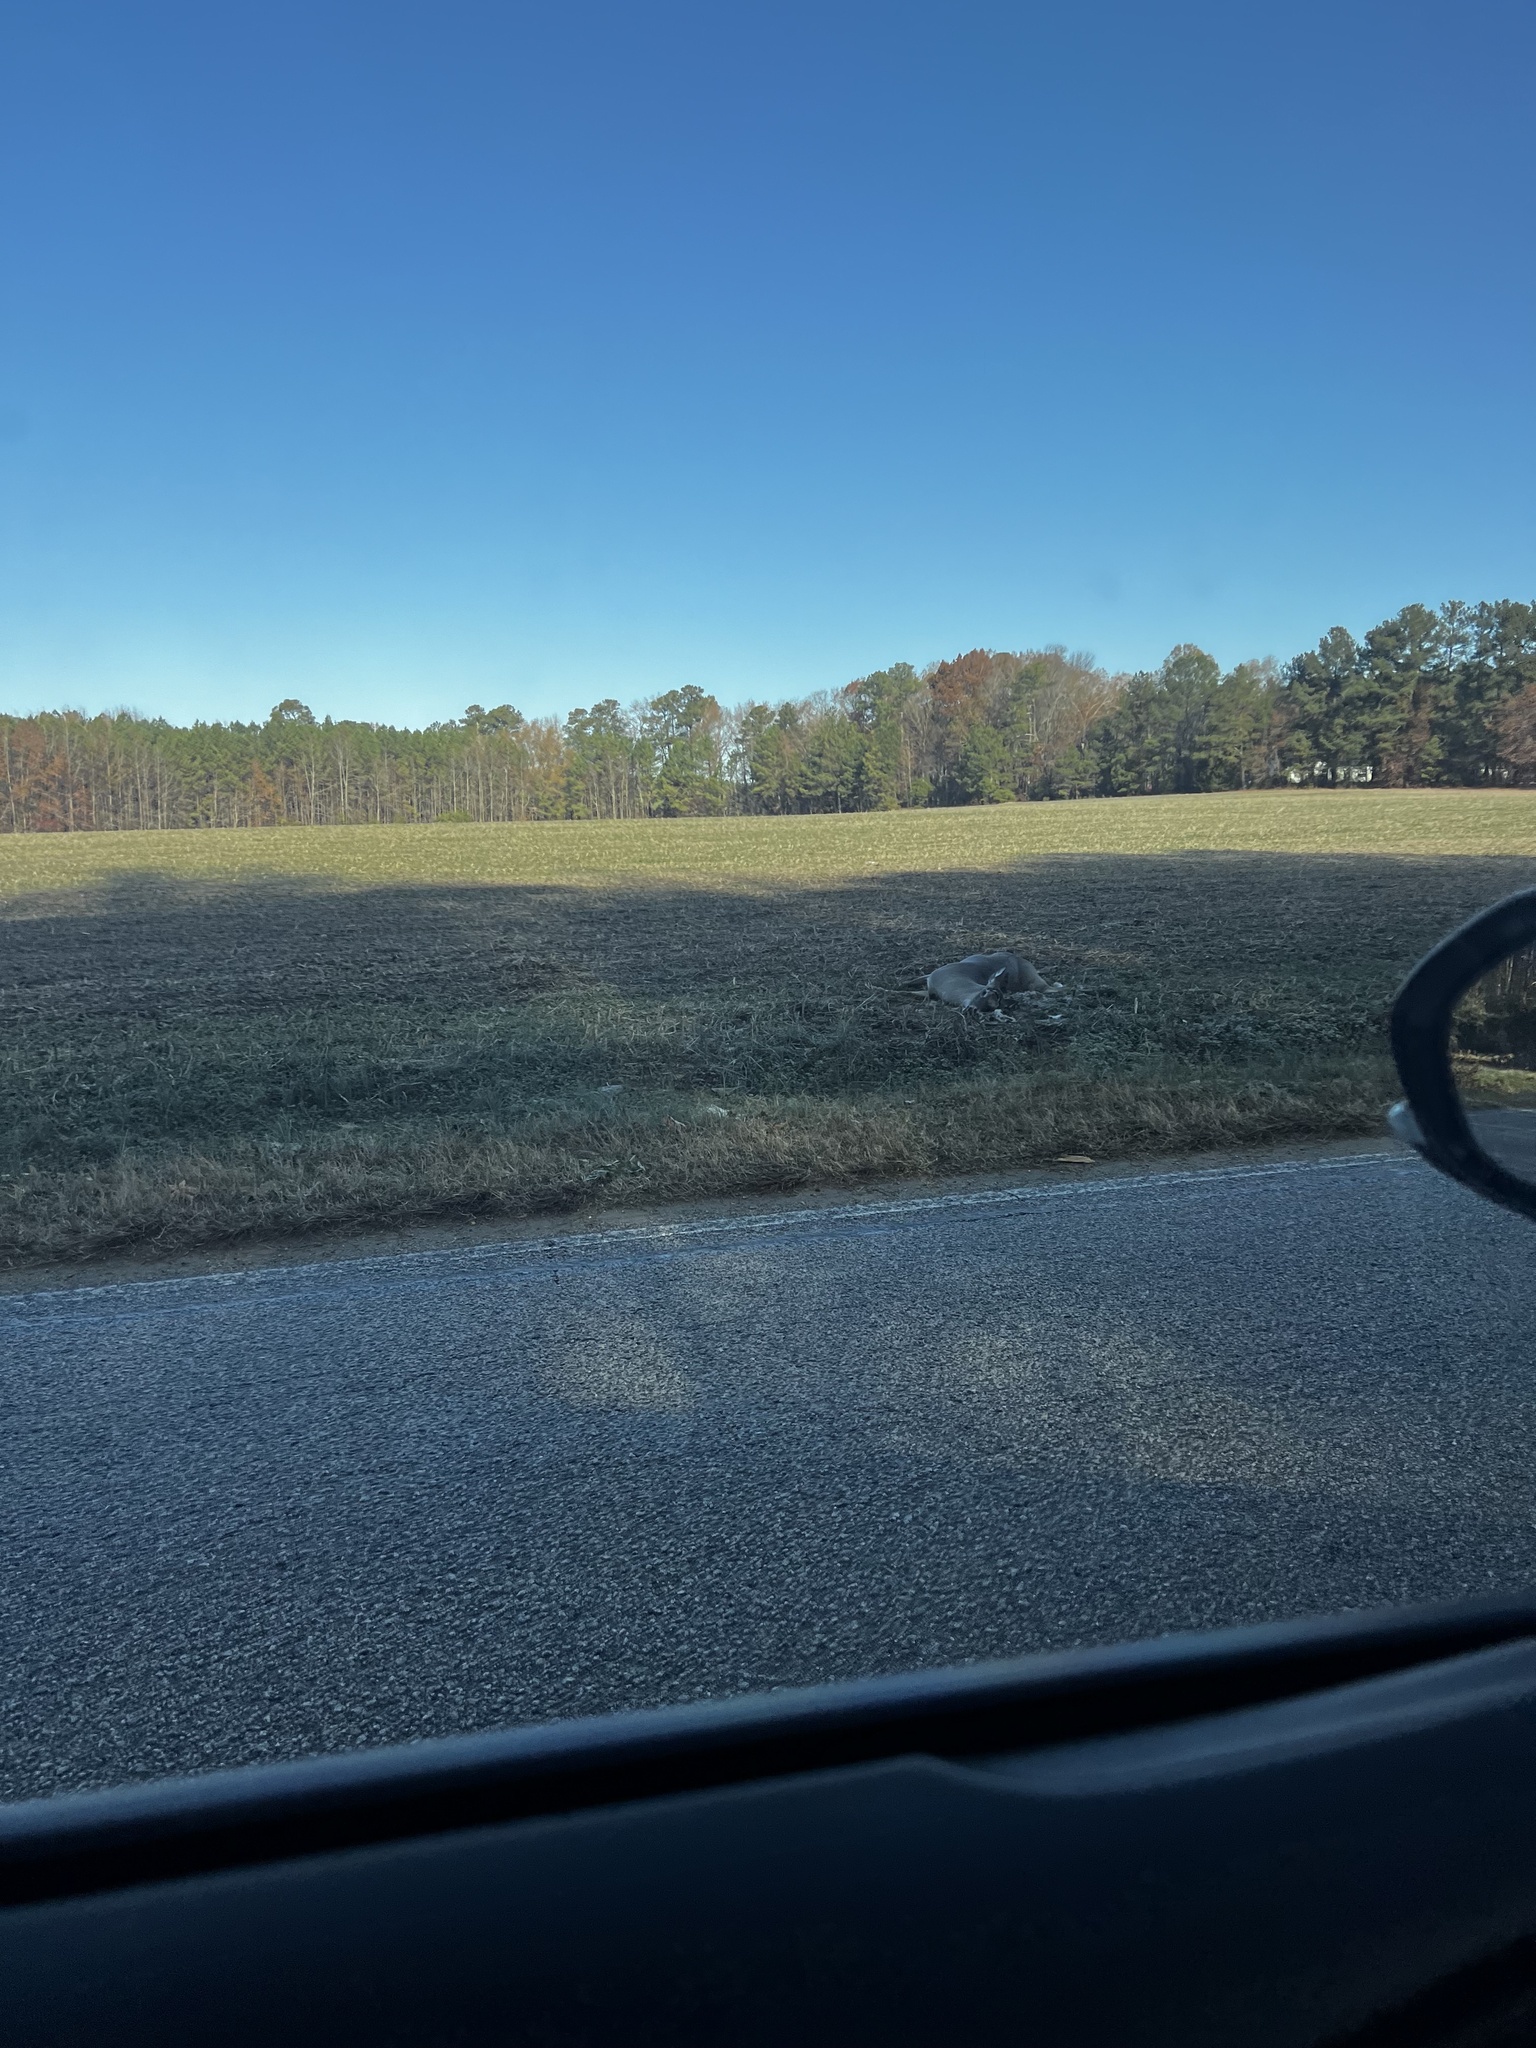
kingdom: Animalia
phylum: Chordata
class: Mammalia
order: Artiodactyla
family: Cervidae
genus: Odocoileus
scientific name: Odocoileus virginianus
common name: White-tailed deer
